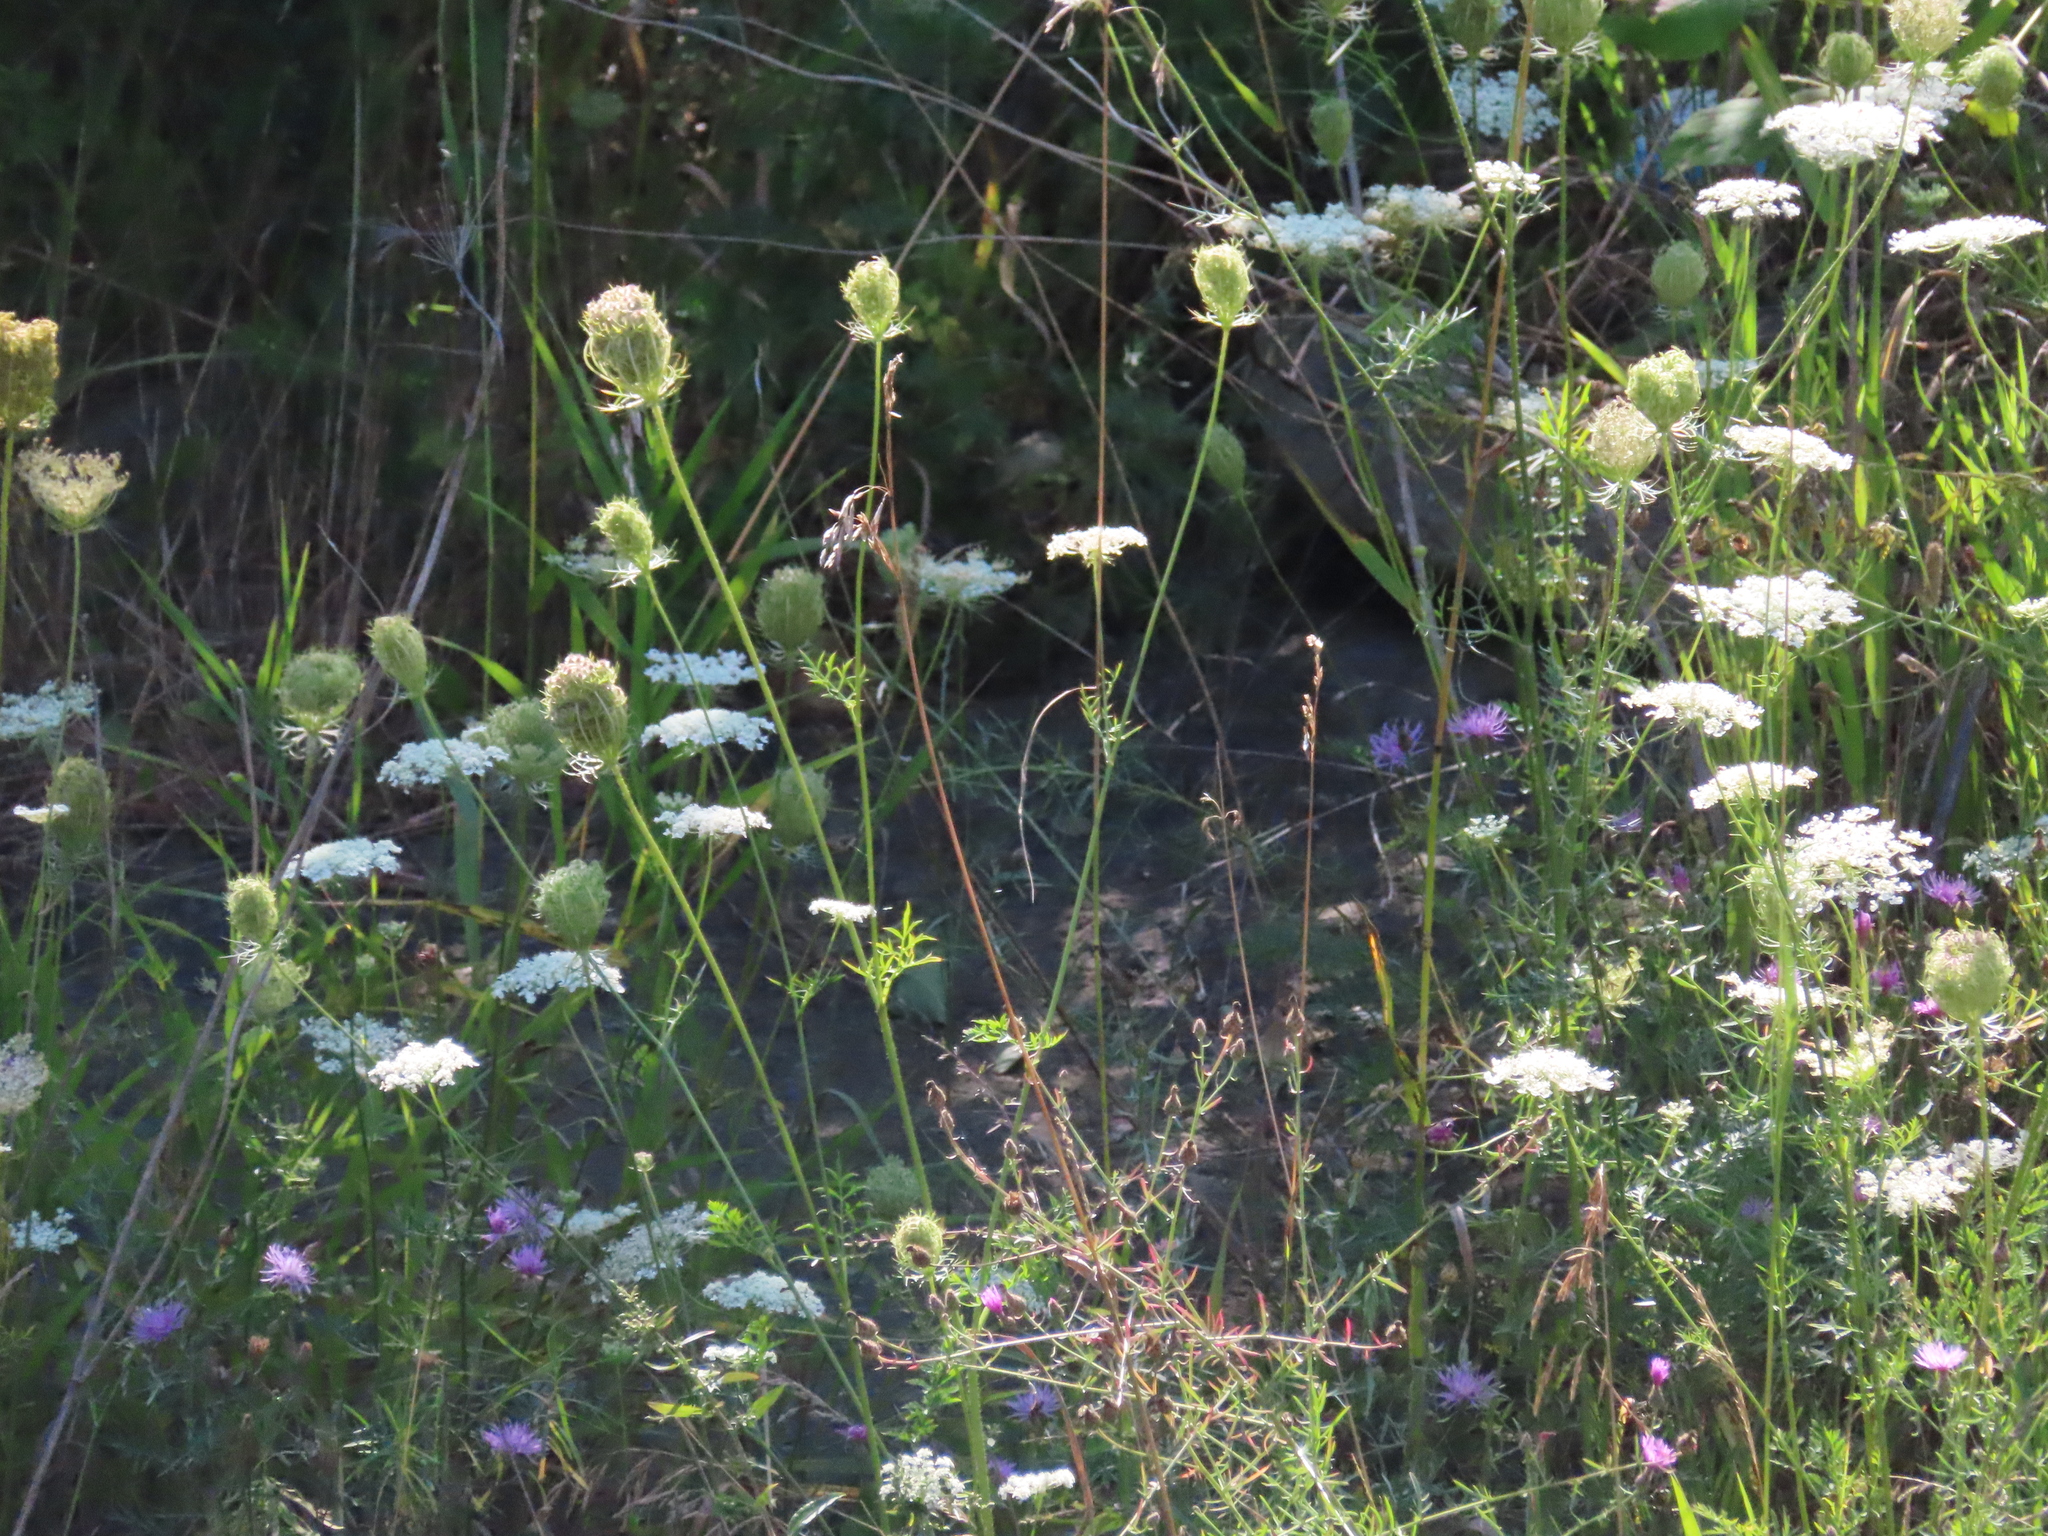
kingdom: Plantae
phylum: Tracheophyta
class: Magnoliopsida
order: Apiales
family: Apiaceae
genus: Daucus
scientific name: Daucus carota
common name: Wild carrot
